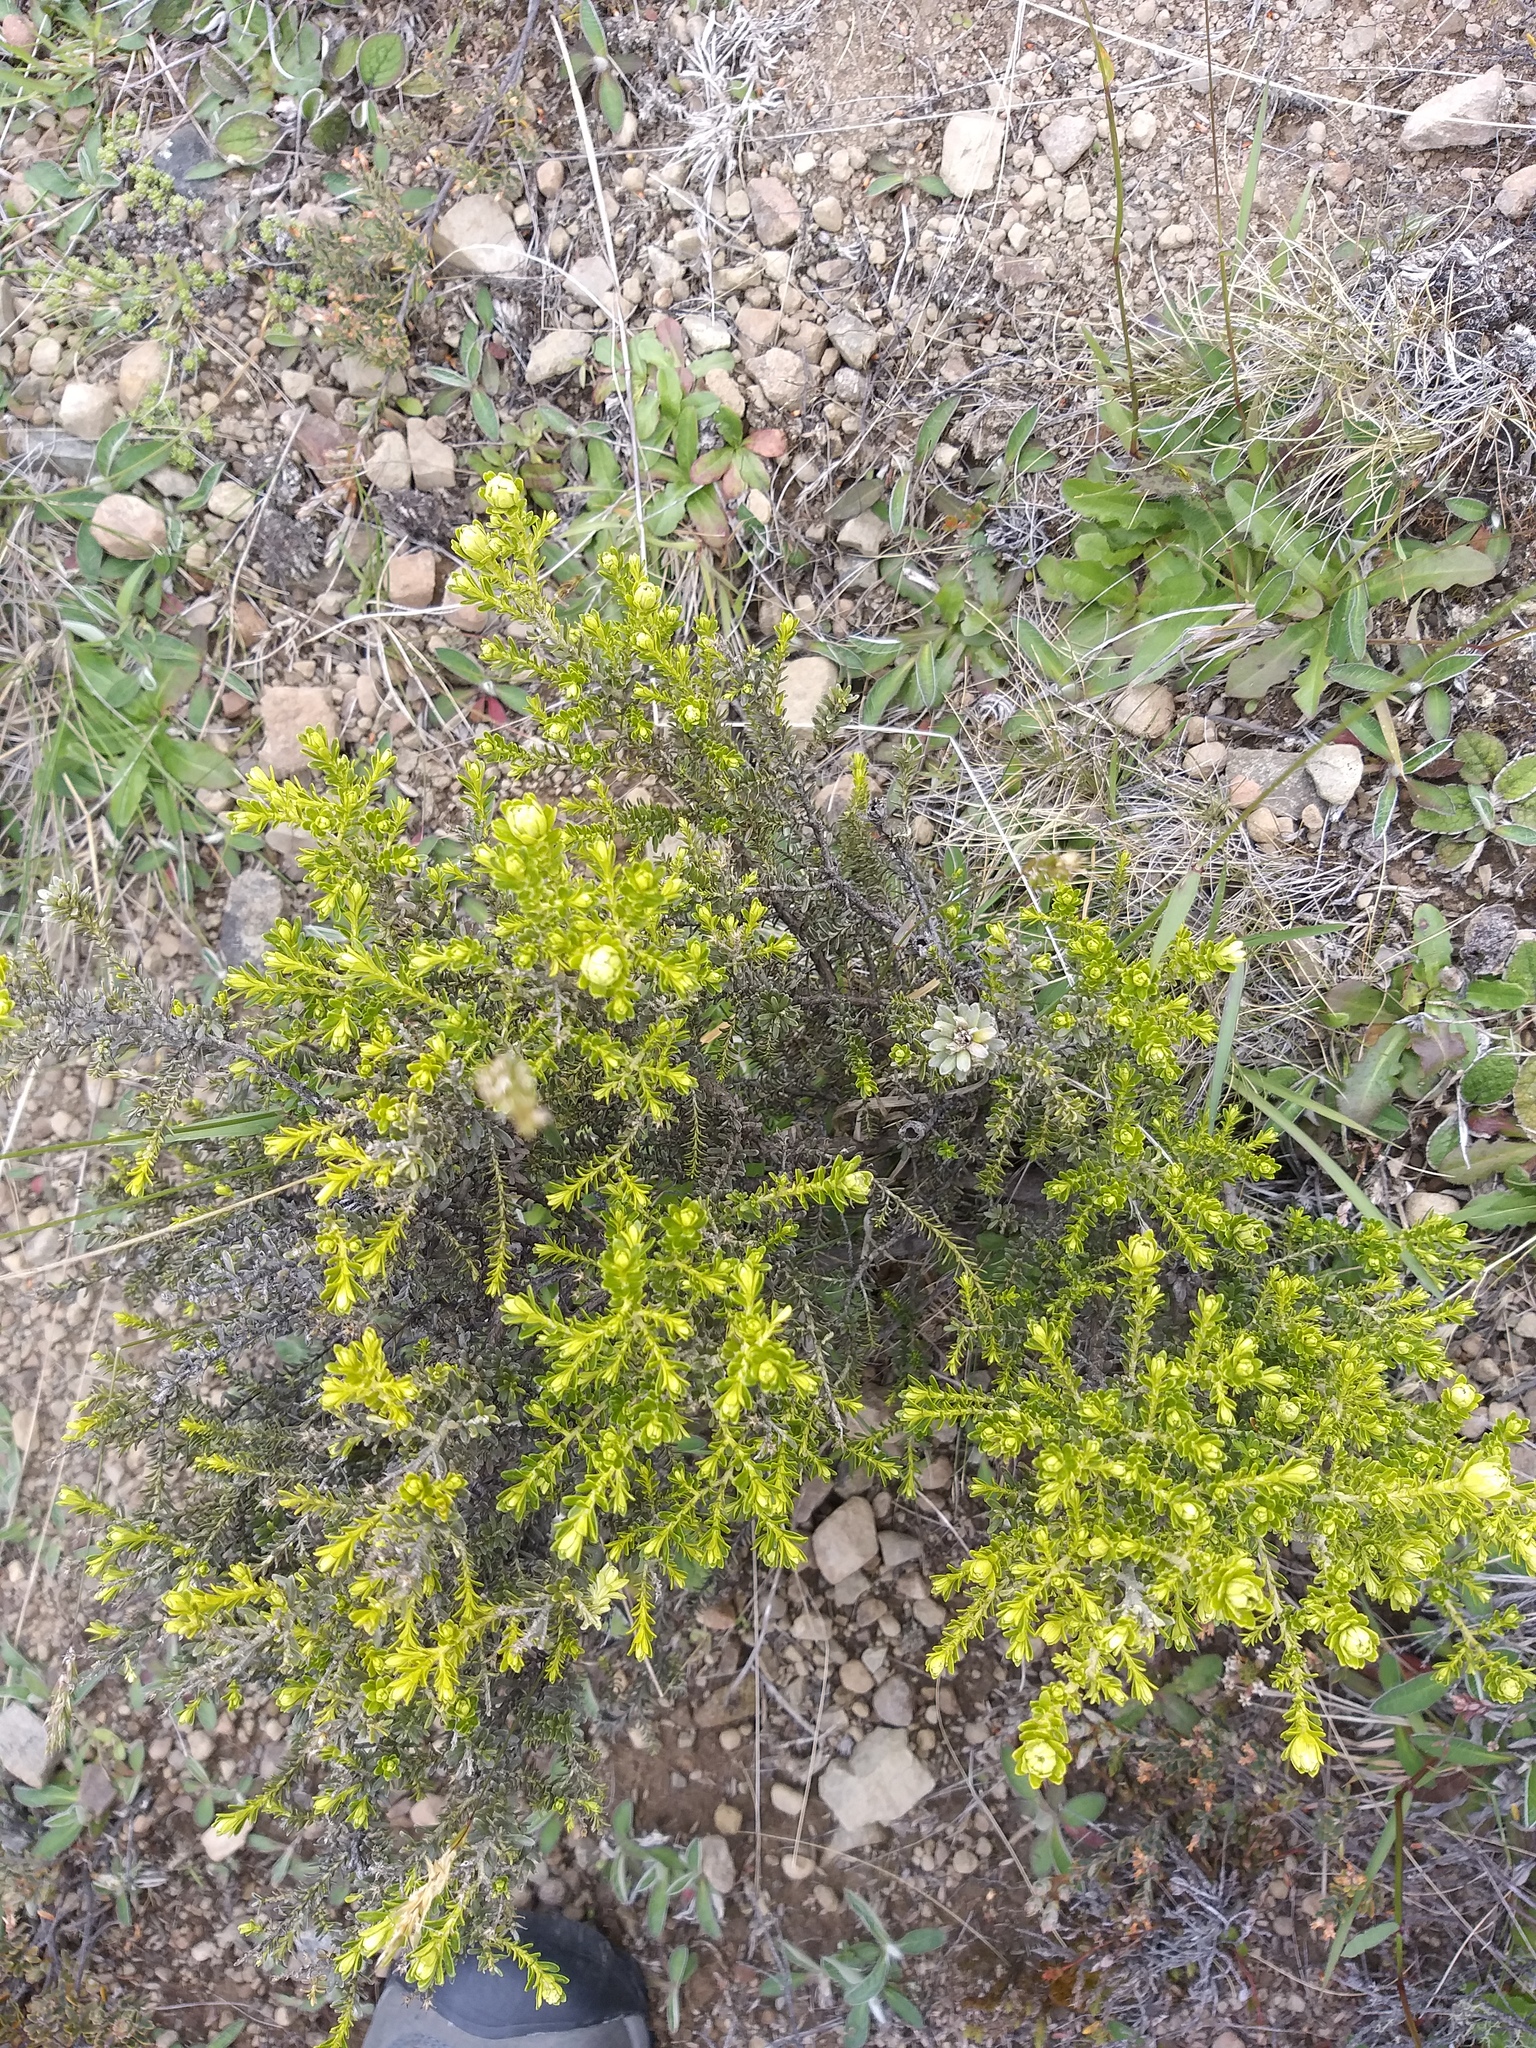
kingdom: Plantae
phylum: Tracheophyta
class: Magnoliopsida
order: Asterales
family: Asteraceae
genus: Ozothamnus
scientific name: Ozothamnus leptophyllus
